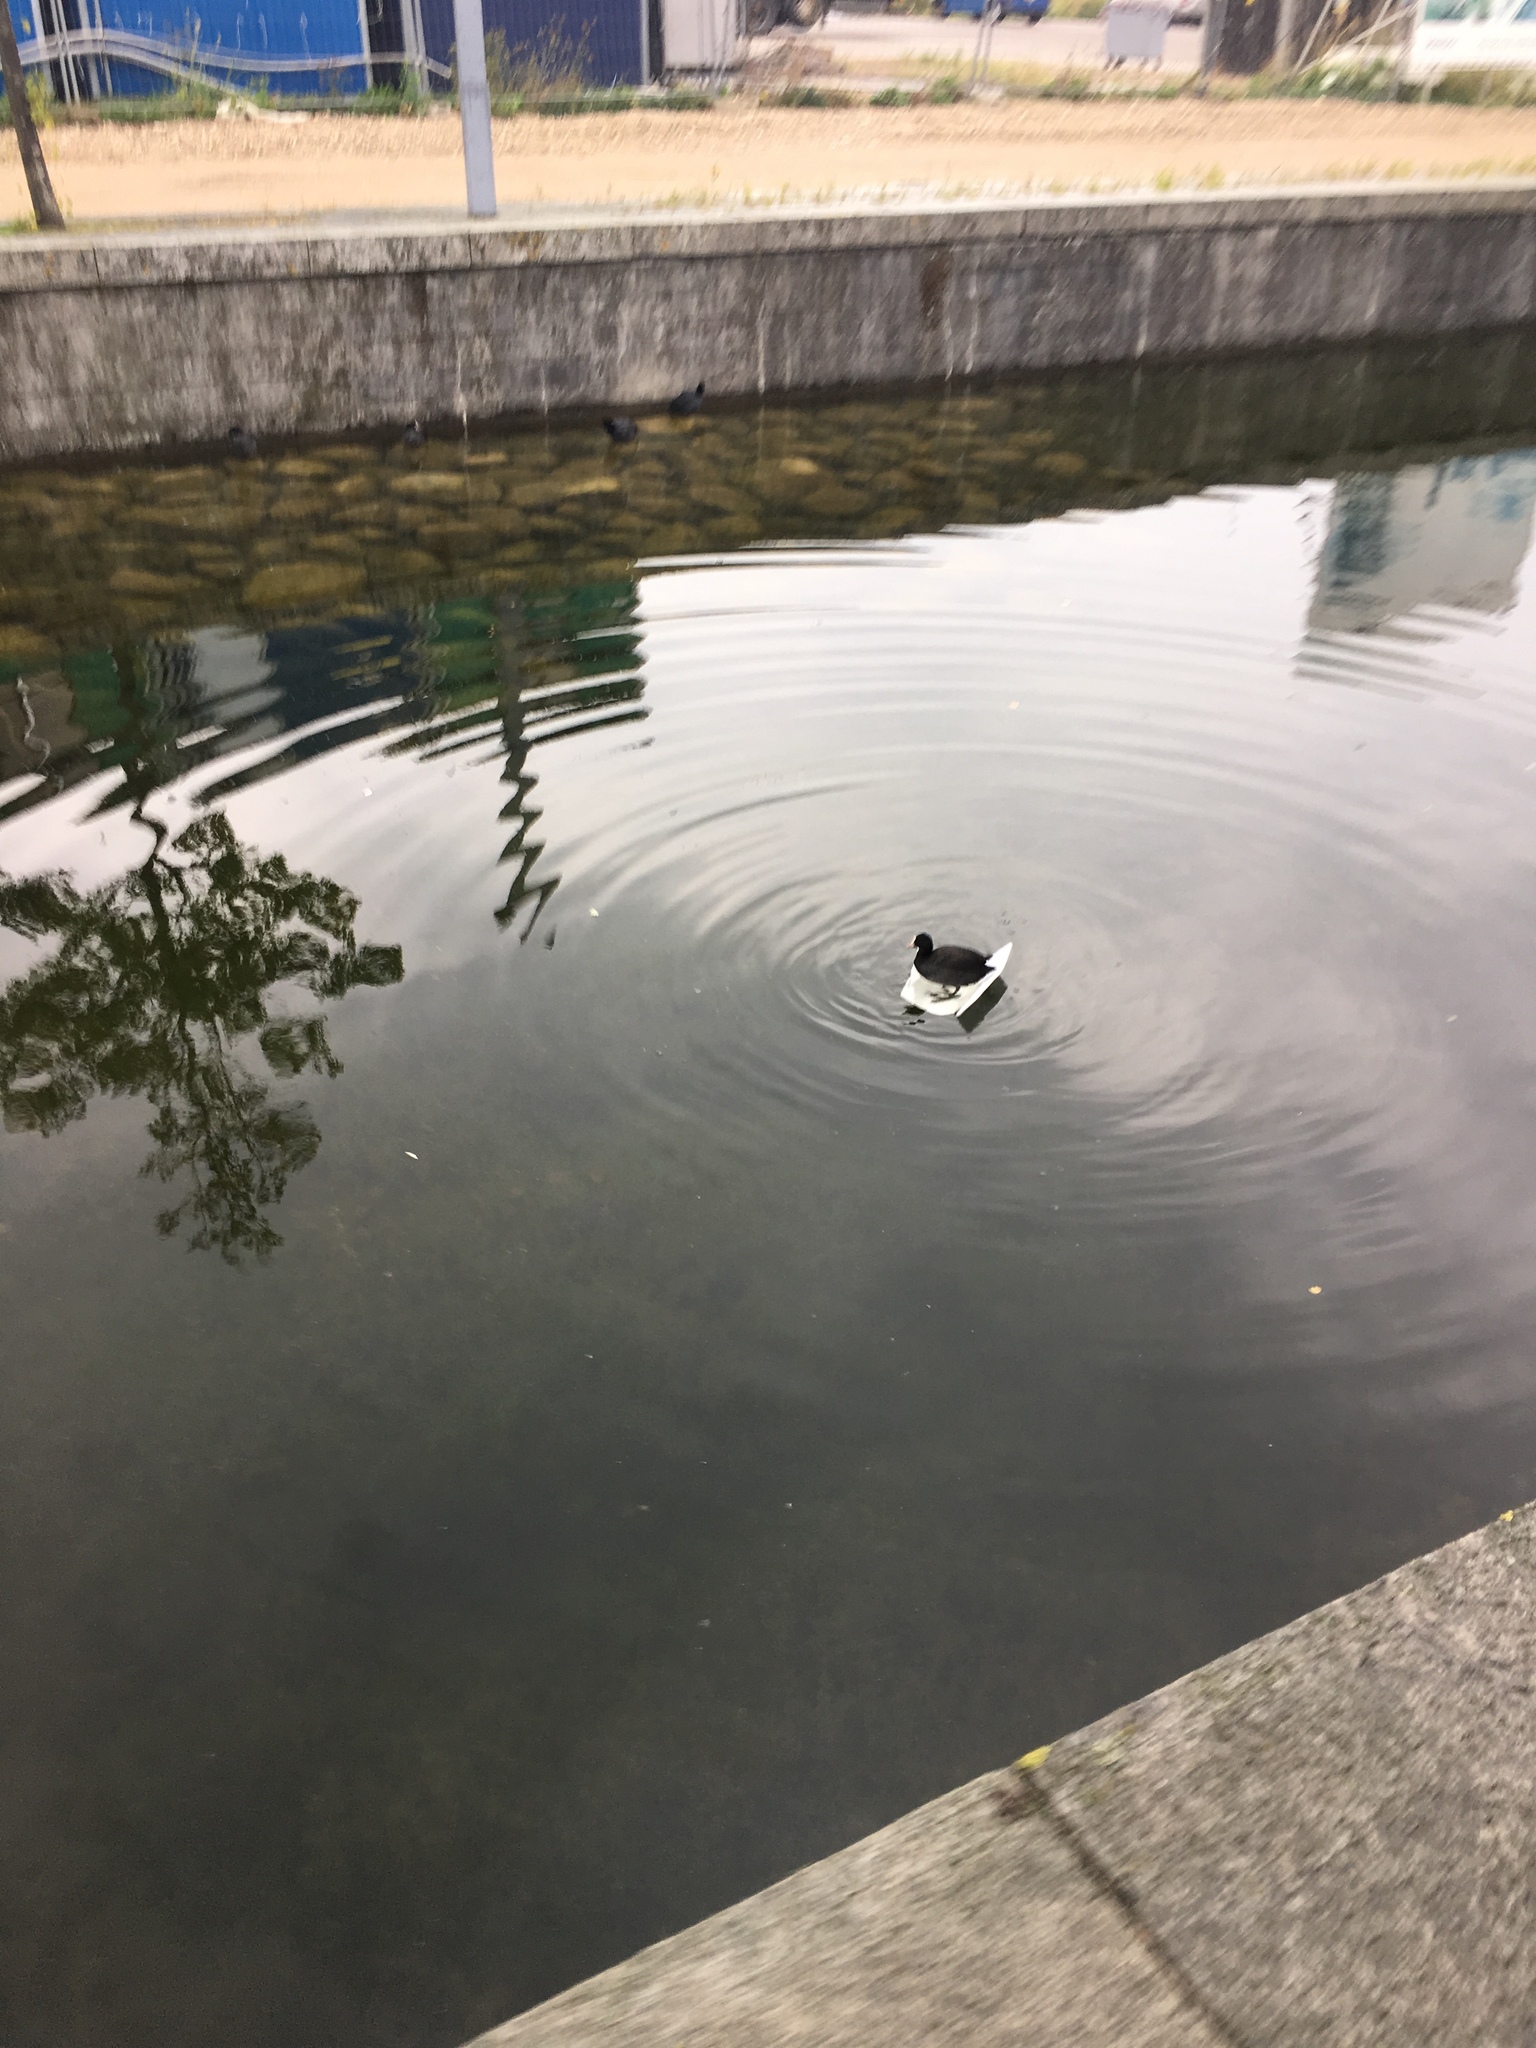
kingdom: Animalia
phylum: Chordata
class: Aves
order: Gruiformes
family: Rallidae
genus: Fulica
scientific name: Fulica atra
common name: Eurasian coot
